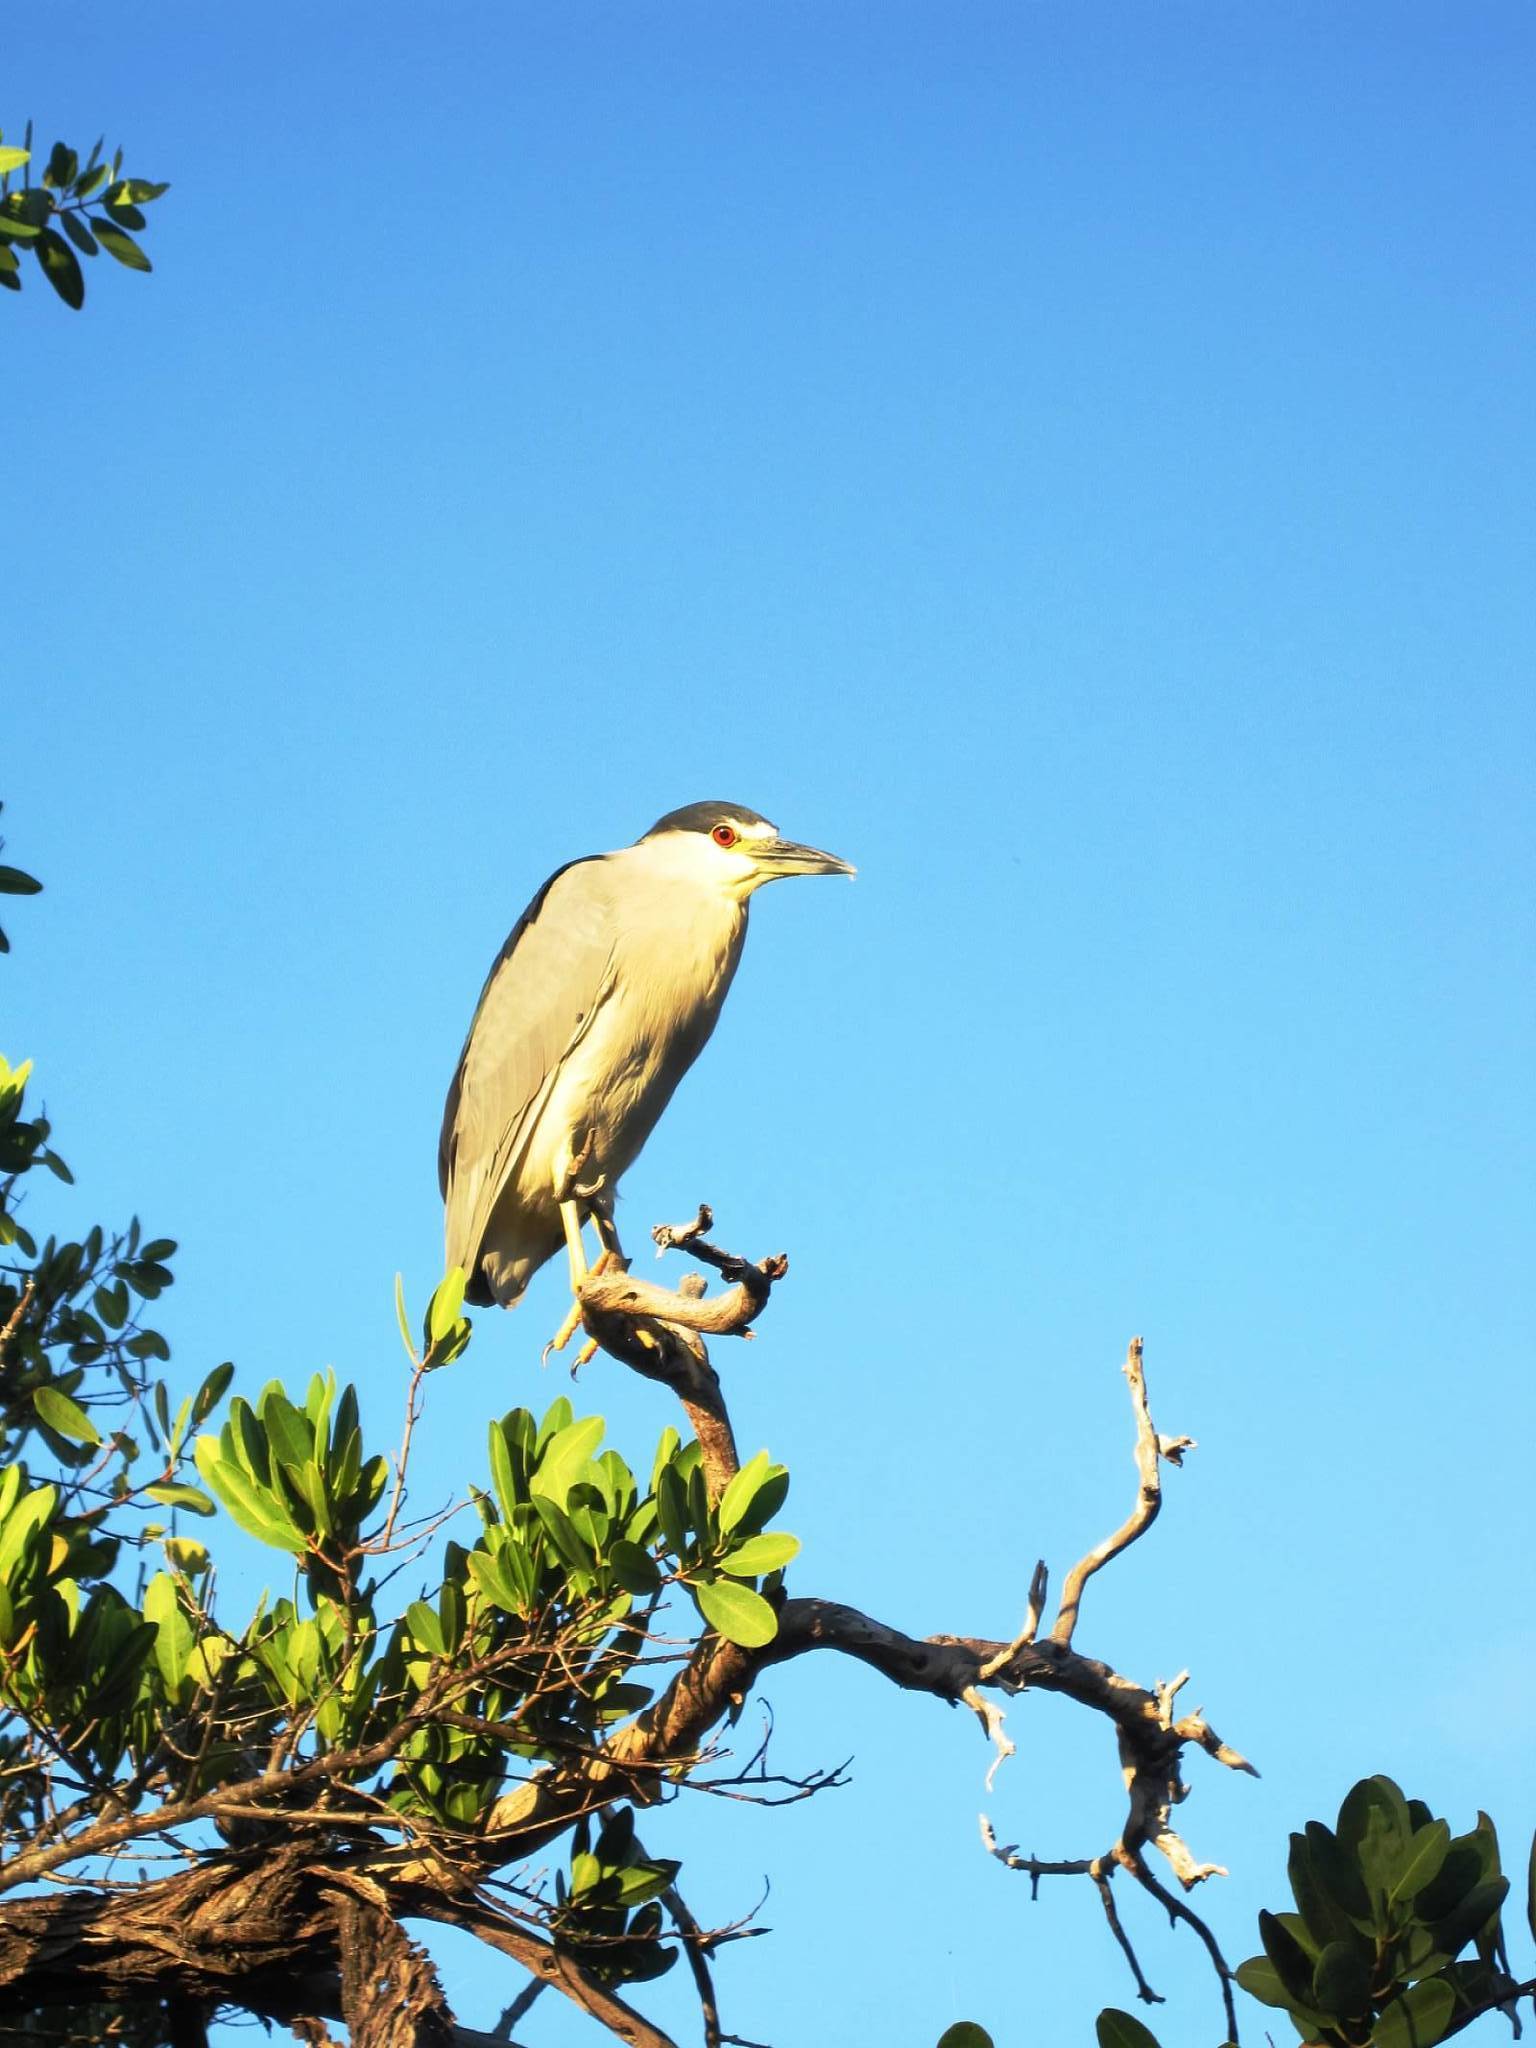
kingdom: Animalia
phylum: Chordata
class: Aves
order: Pelecaniformes
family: Ardeidae
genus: Nycticorax
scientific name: Nycticorax nycticorax
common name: Black-crowned night heron
